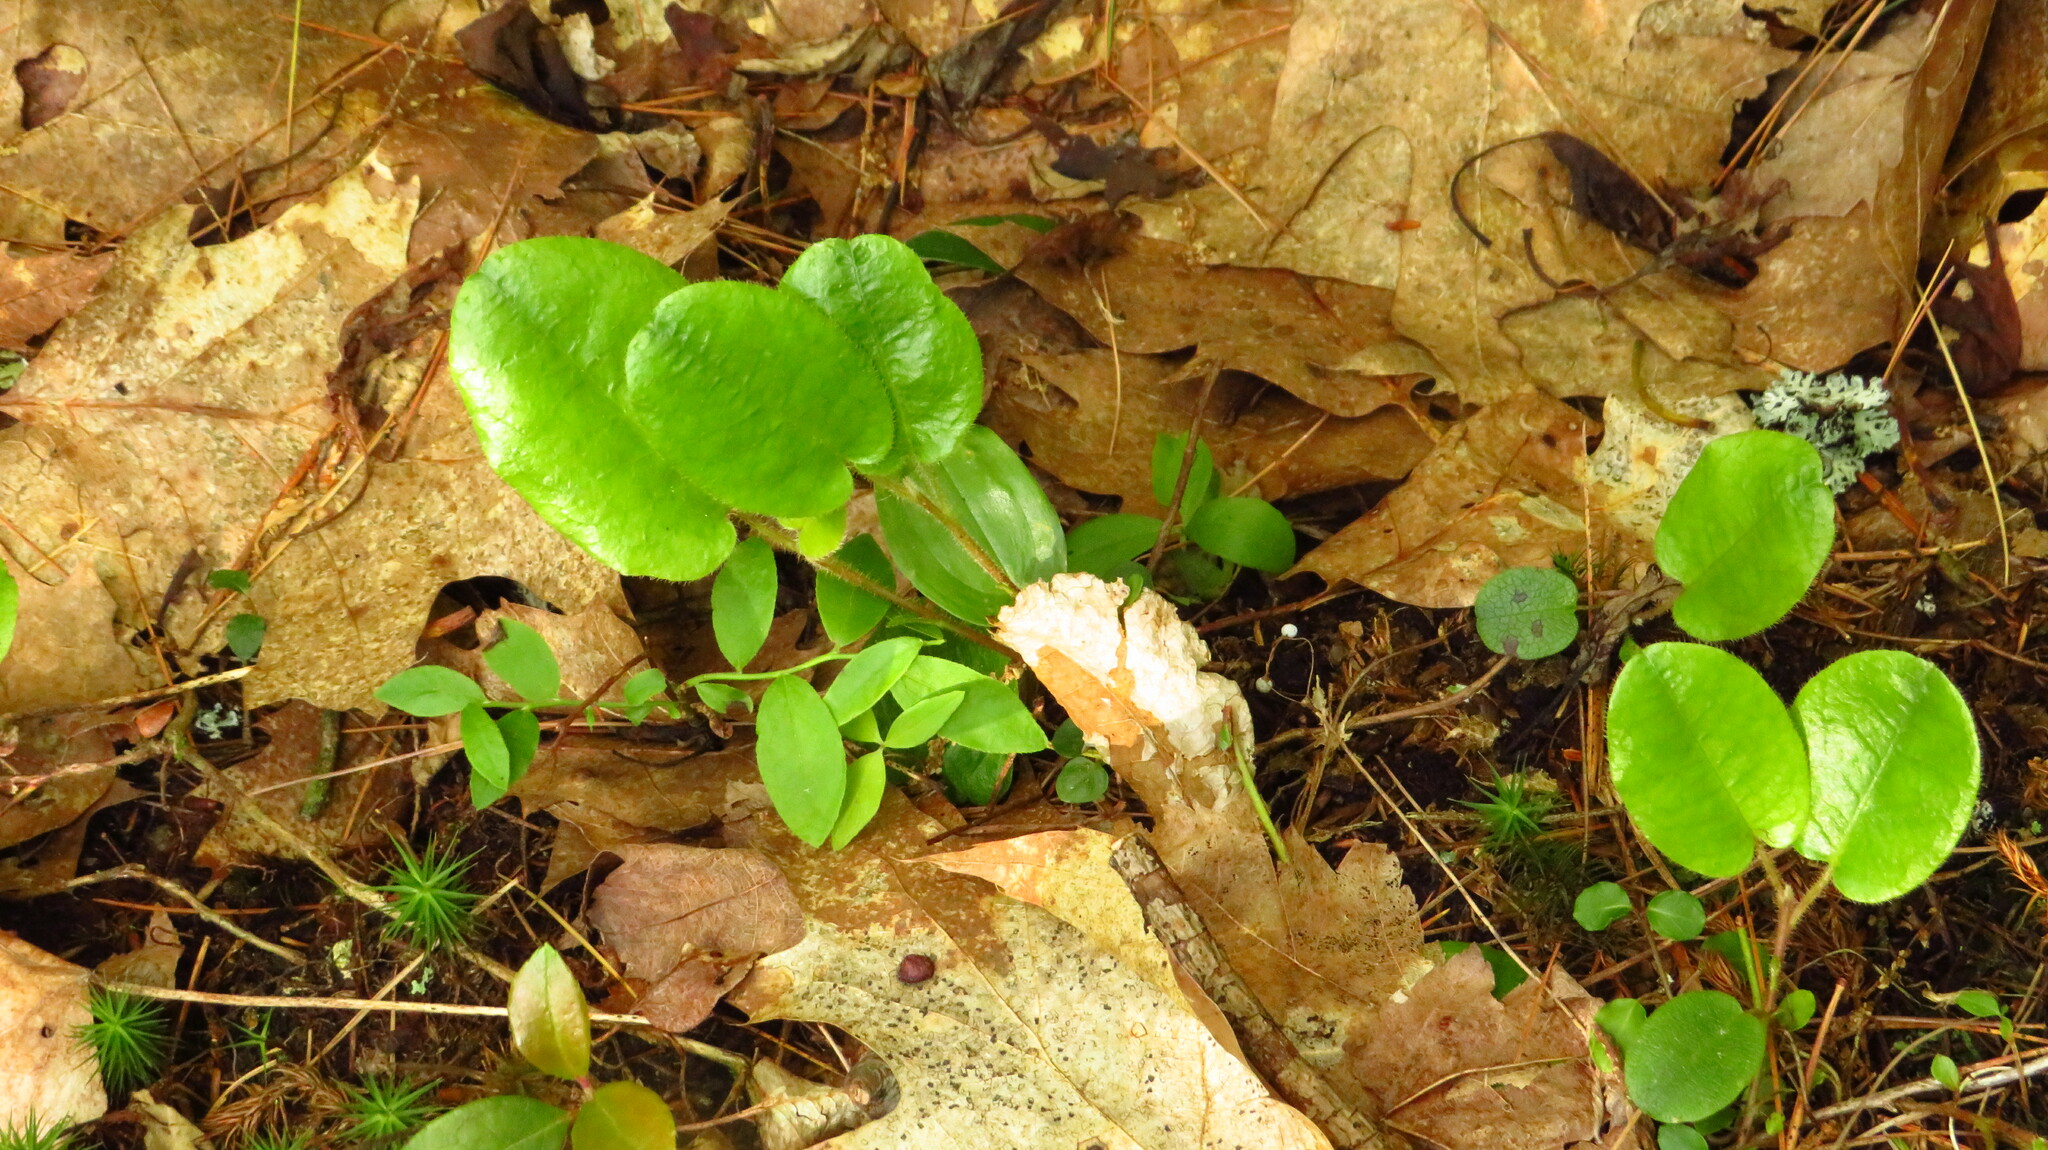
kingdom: Plantae
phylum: Tracheophyta
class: Magnoliopsida
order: Ericales
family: Ericaceae
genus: Epigaea
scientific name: Epigaea repens
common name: Gravelroot
